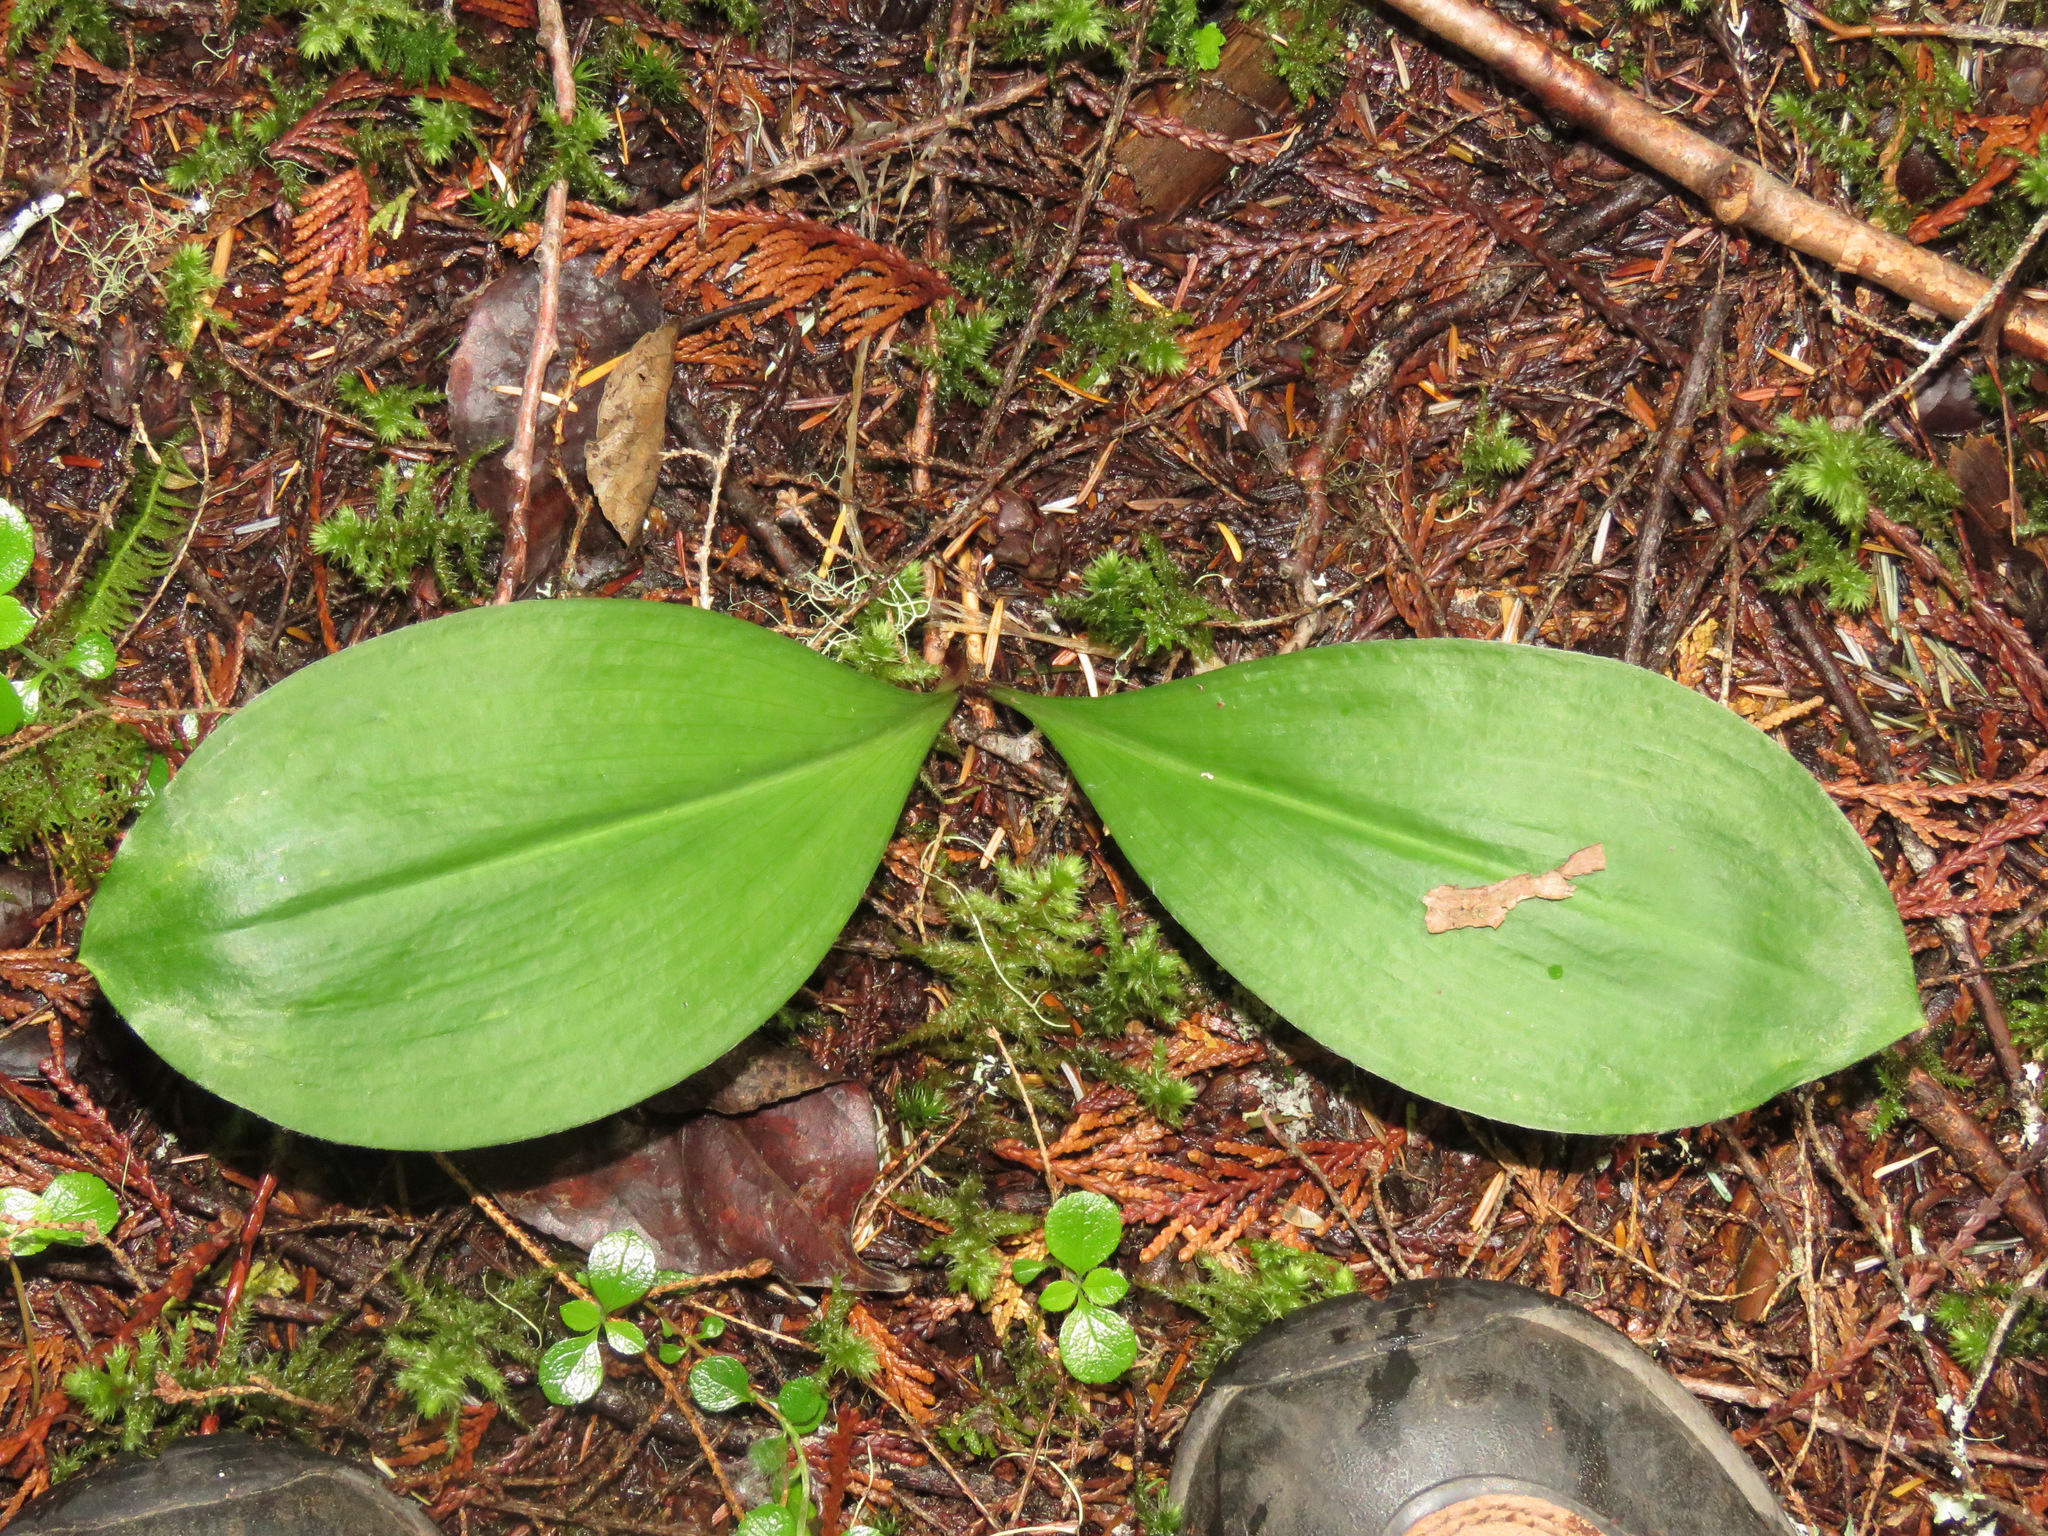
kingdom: Plantae
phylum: Tracheophyta
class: Liliopsida
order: Liliales
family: Liliaceae
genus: Clintonia
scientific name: Clintonia uniflora
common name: Queen's cup
